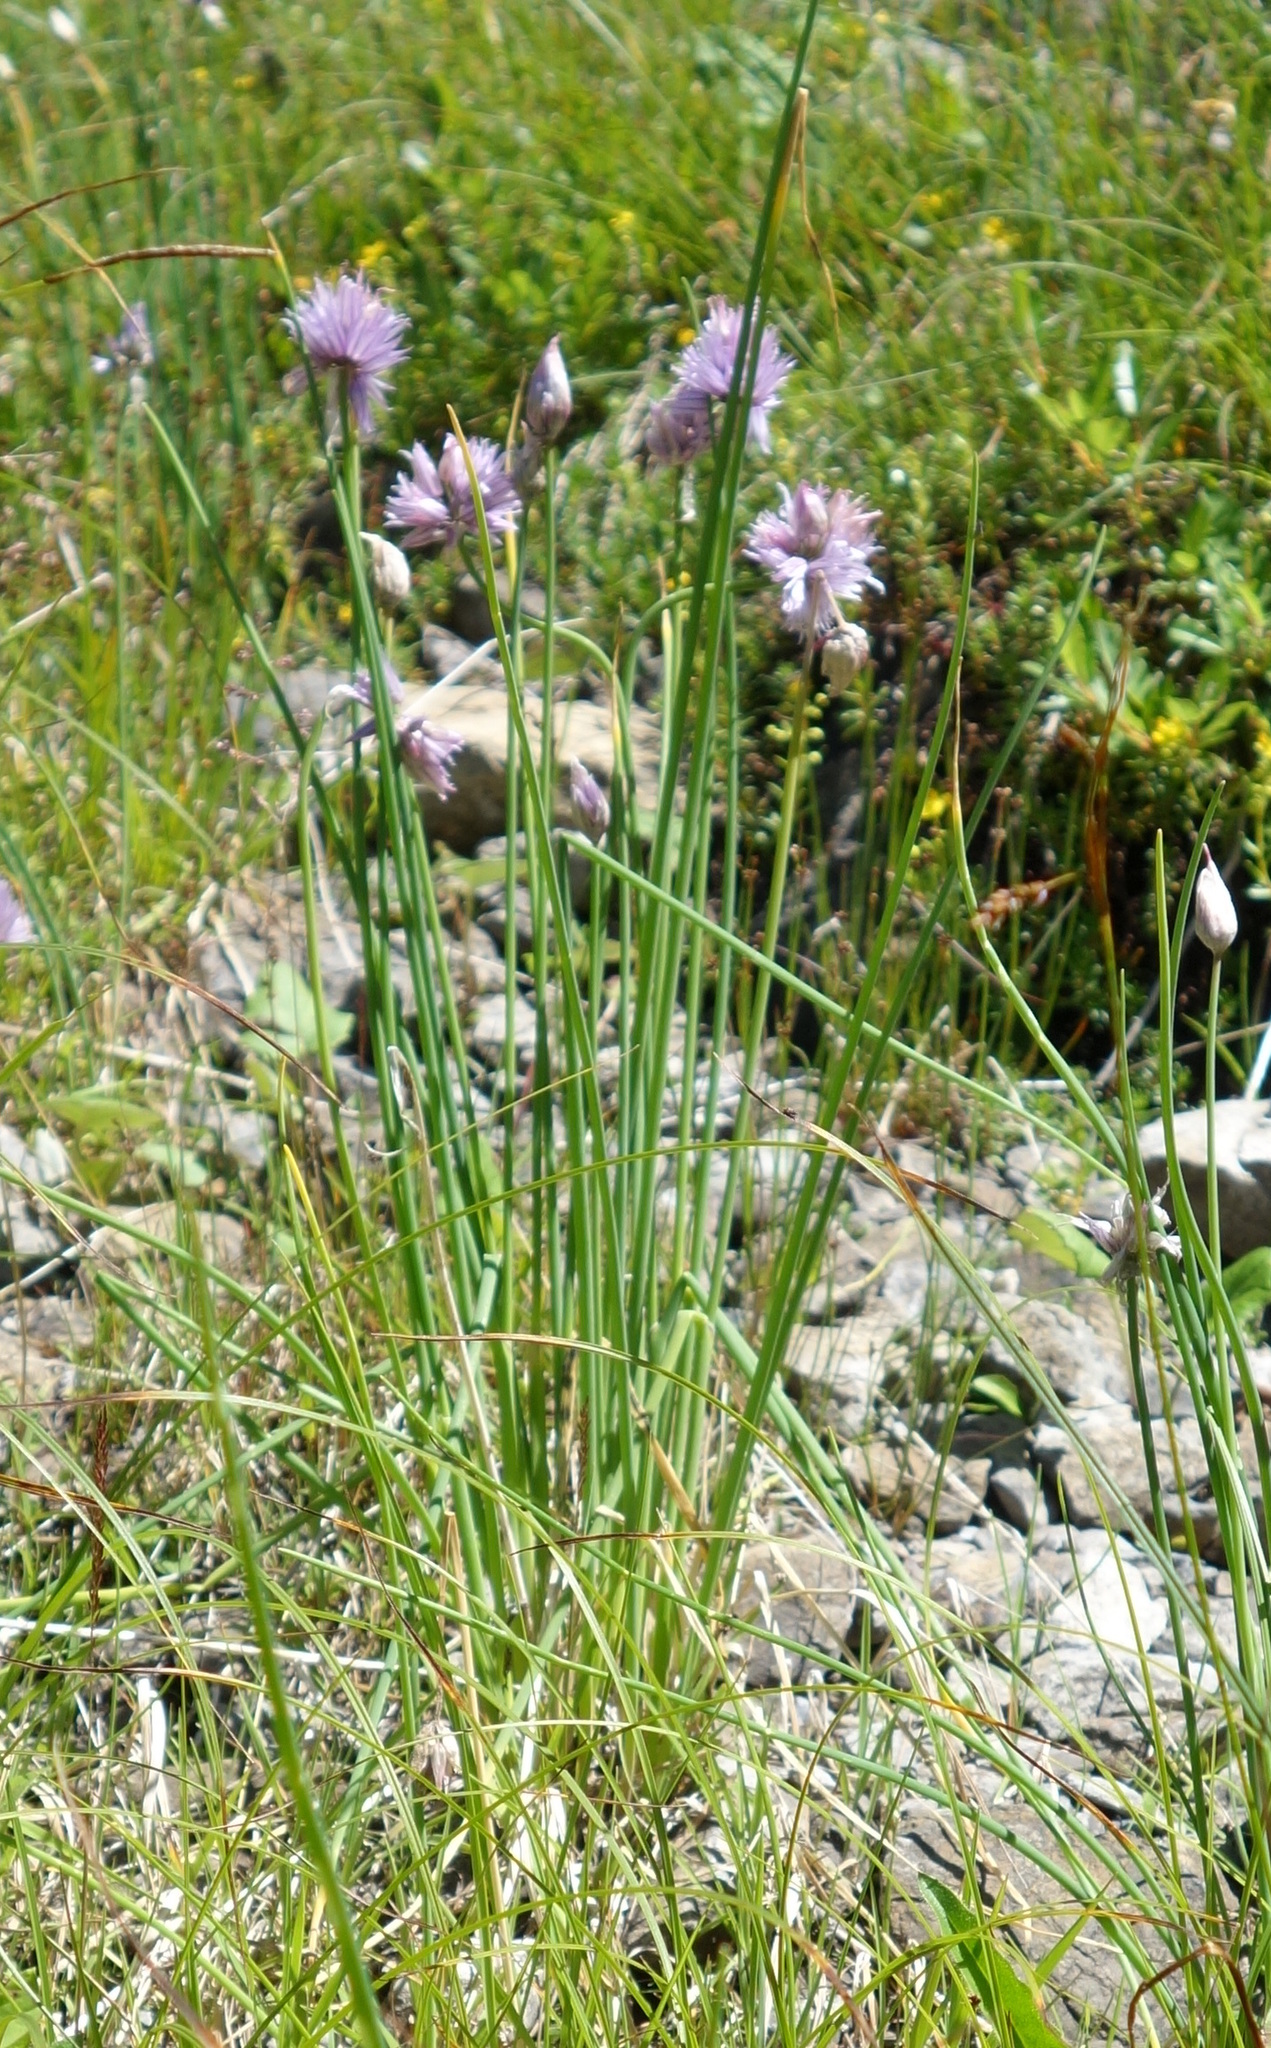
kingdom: Plantae
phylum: Tracheophyta
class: Liliopsida
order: Asparagales
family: Amaryllidaceae
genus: Allium
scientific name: Allium schoenoprasum
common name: Chives
